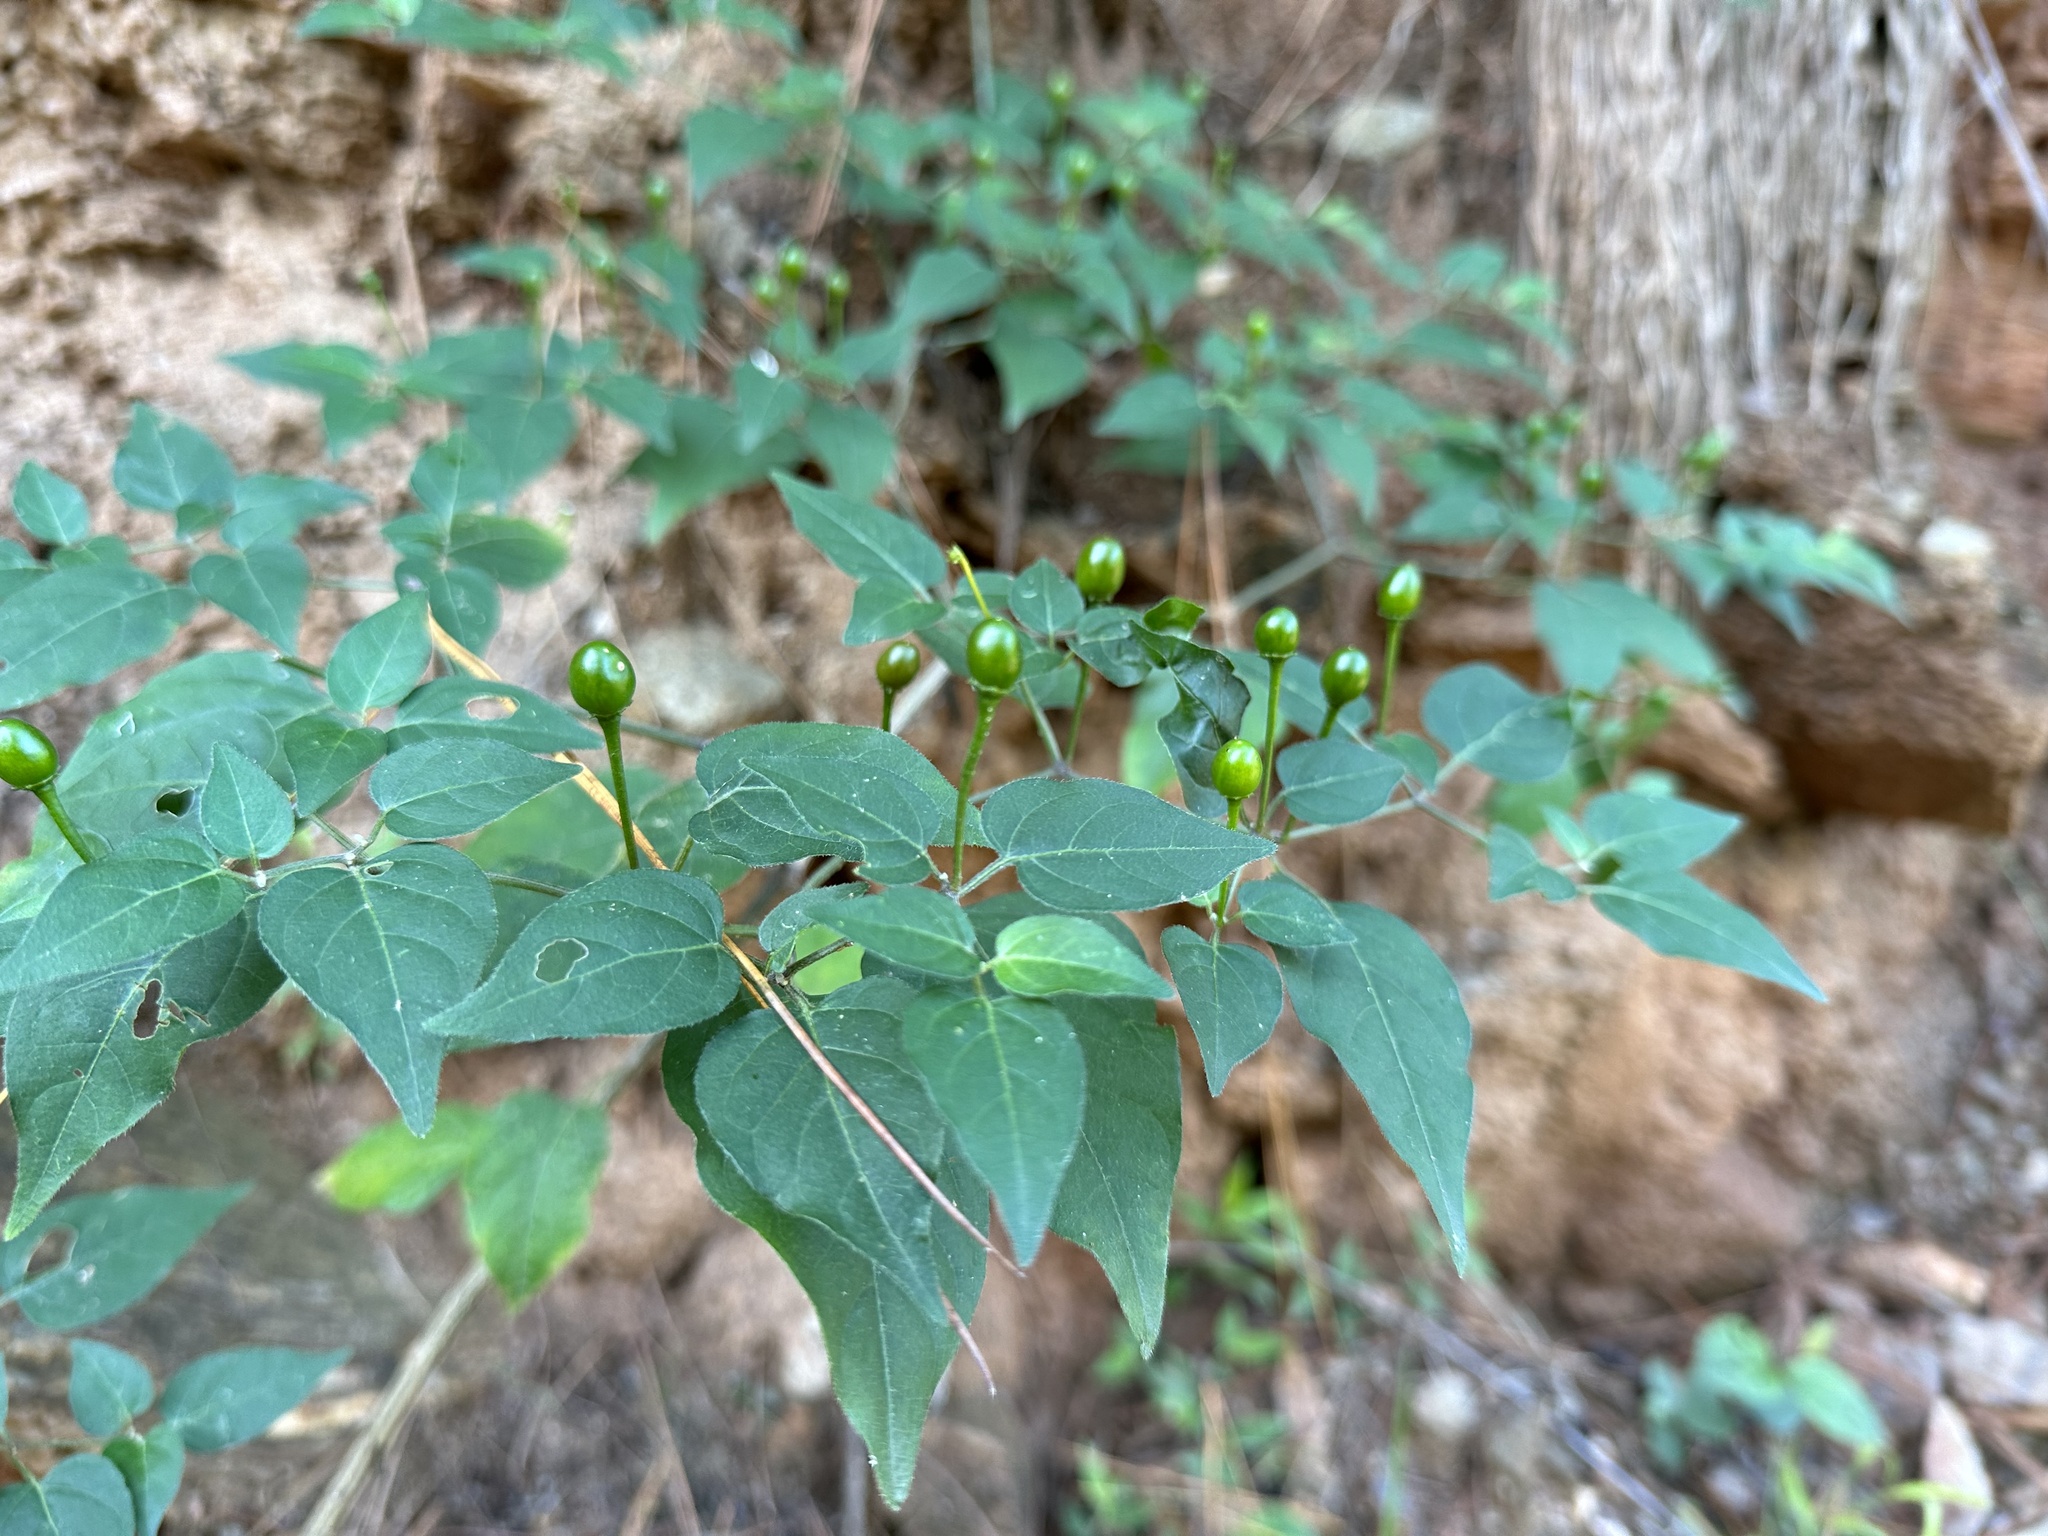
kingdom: Plantae
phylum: Tracheophyta
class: Magnoliopsida
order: Solanales
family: Solanaceae
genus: Capsicum
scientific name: Capsicum annuum
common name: Sweet pepper
